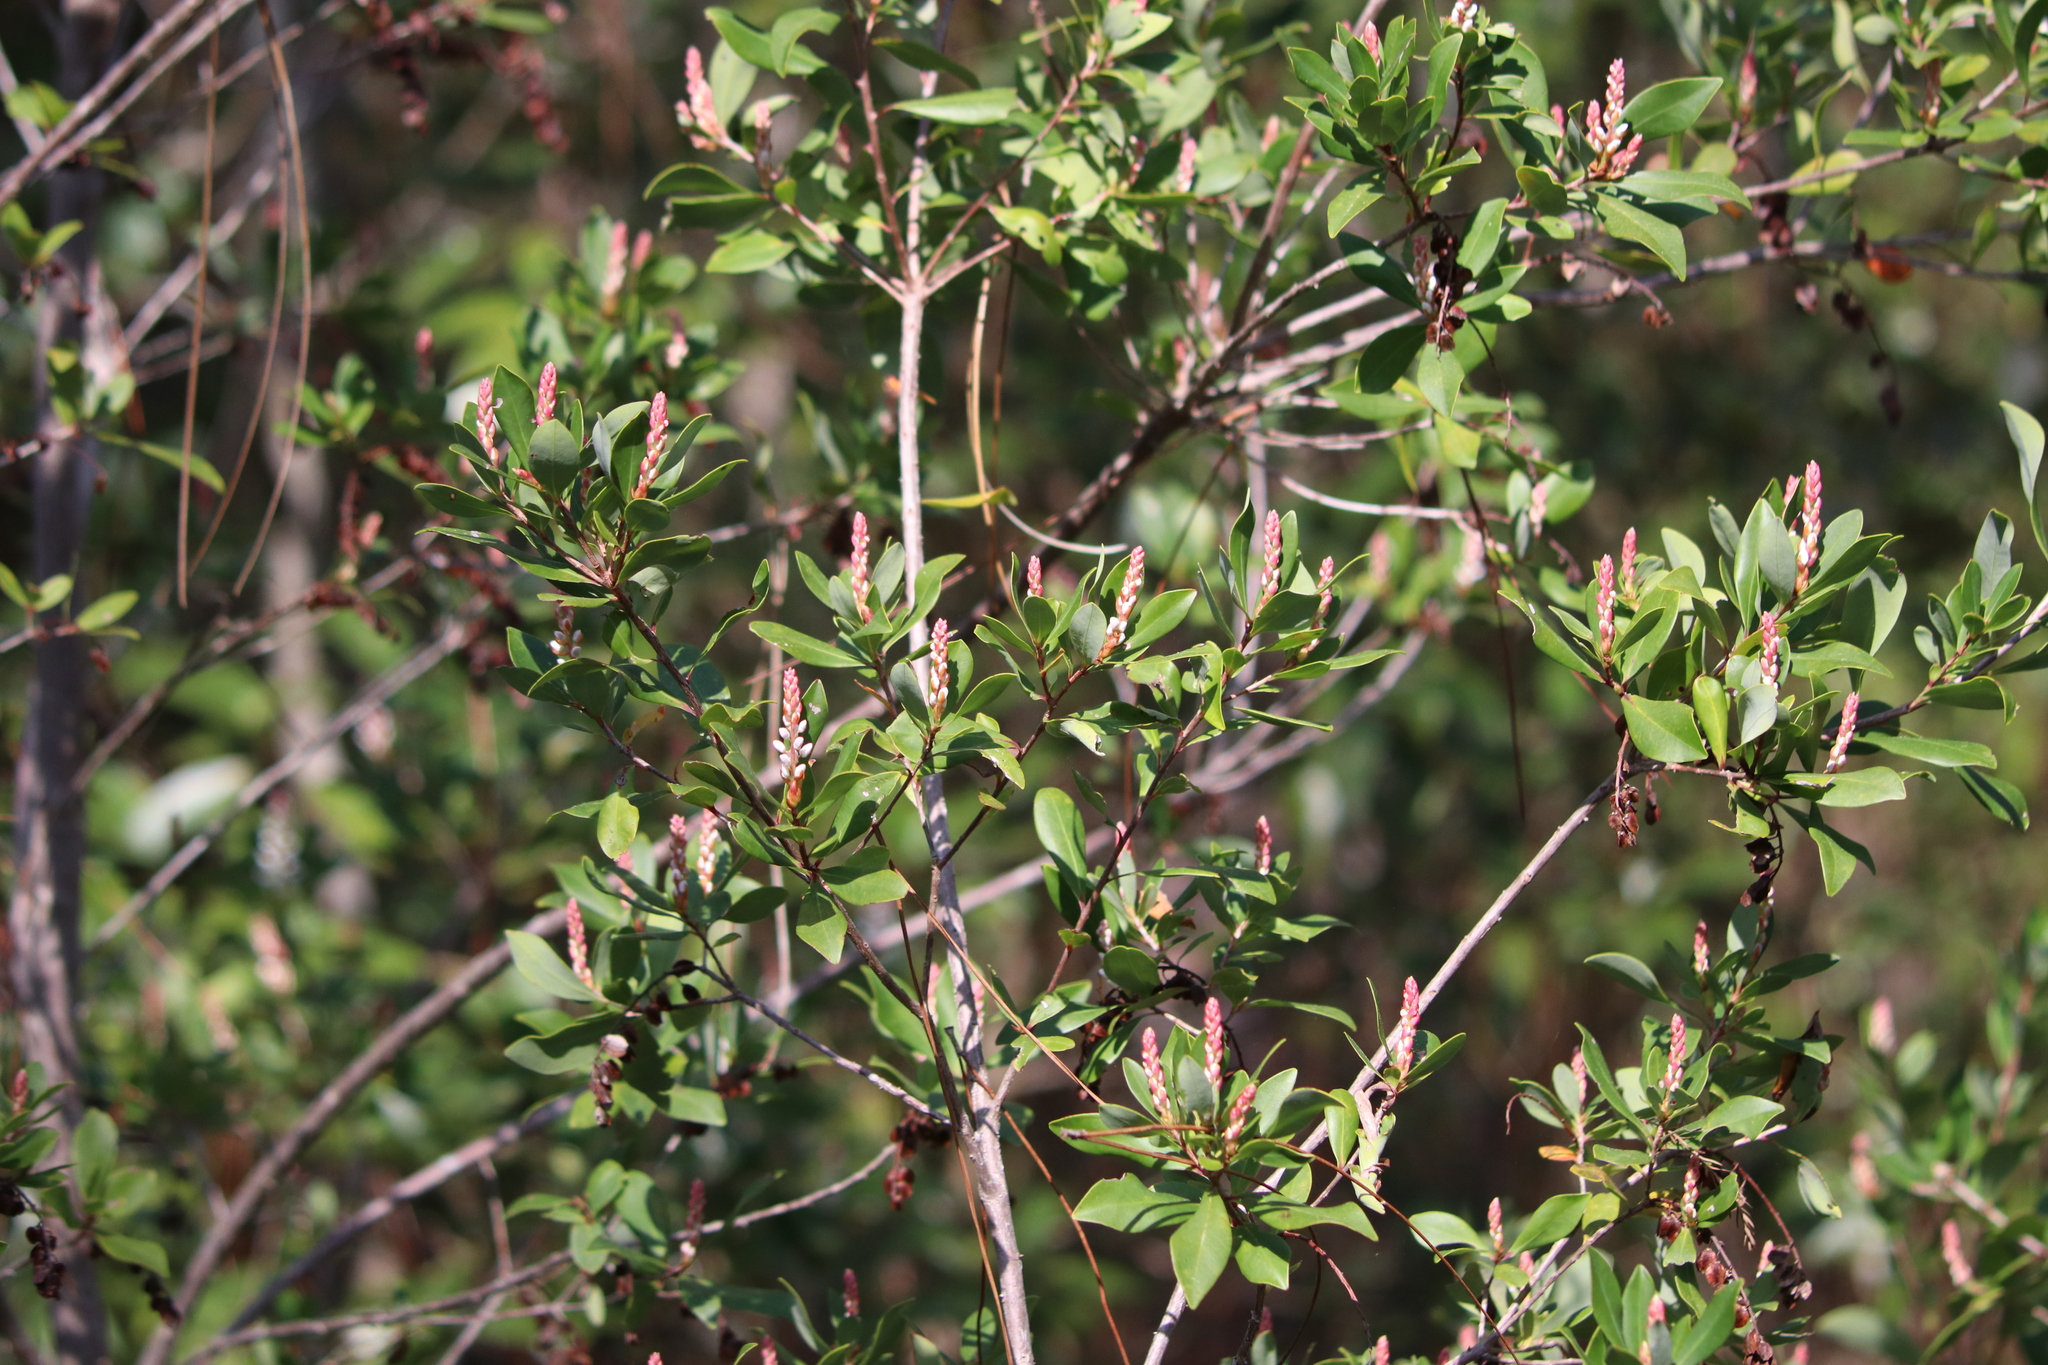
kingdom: Plantae
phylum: Tracheophyta
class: Magnoliopsida
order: Ericales
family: Cyrillaceae
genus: Cliftonia
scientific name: Cliftonia monophylla
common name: Titi
